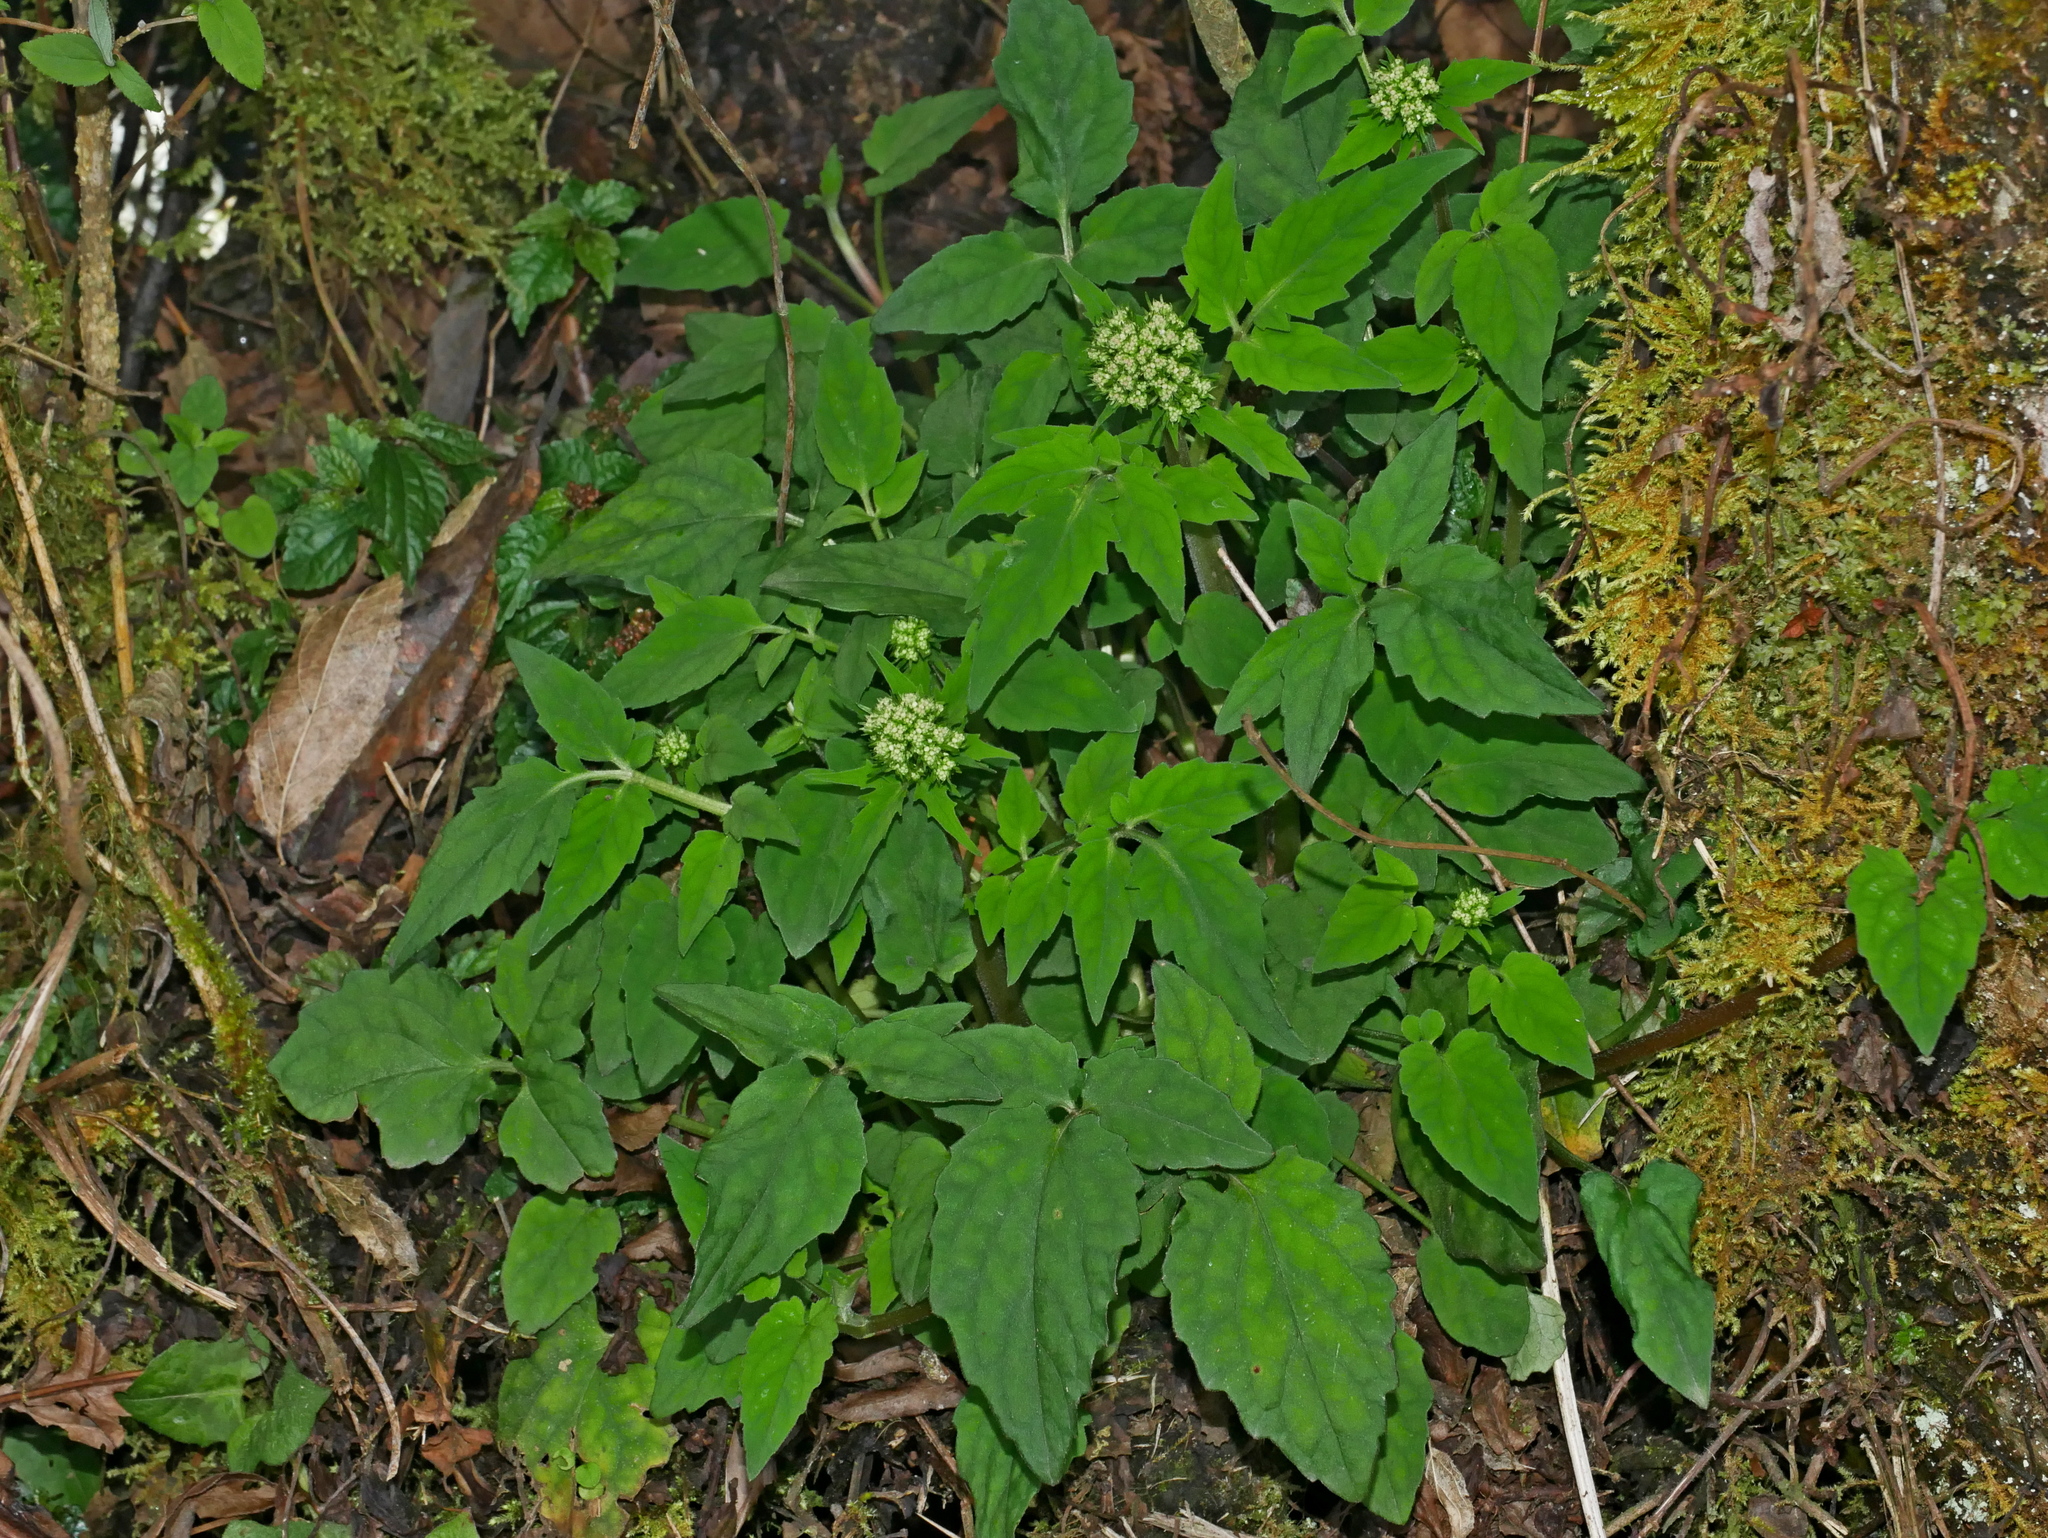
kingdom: Plantae
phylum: Tracheophyta
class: Magnoliopsida
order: Dipsacales
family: Caprifoliaceae
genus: Valeriana
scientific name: Valeriana hsui
